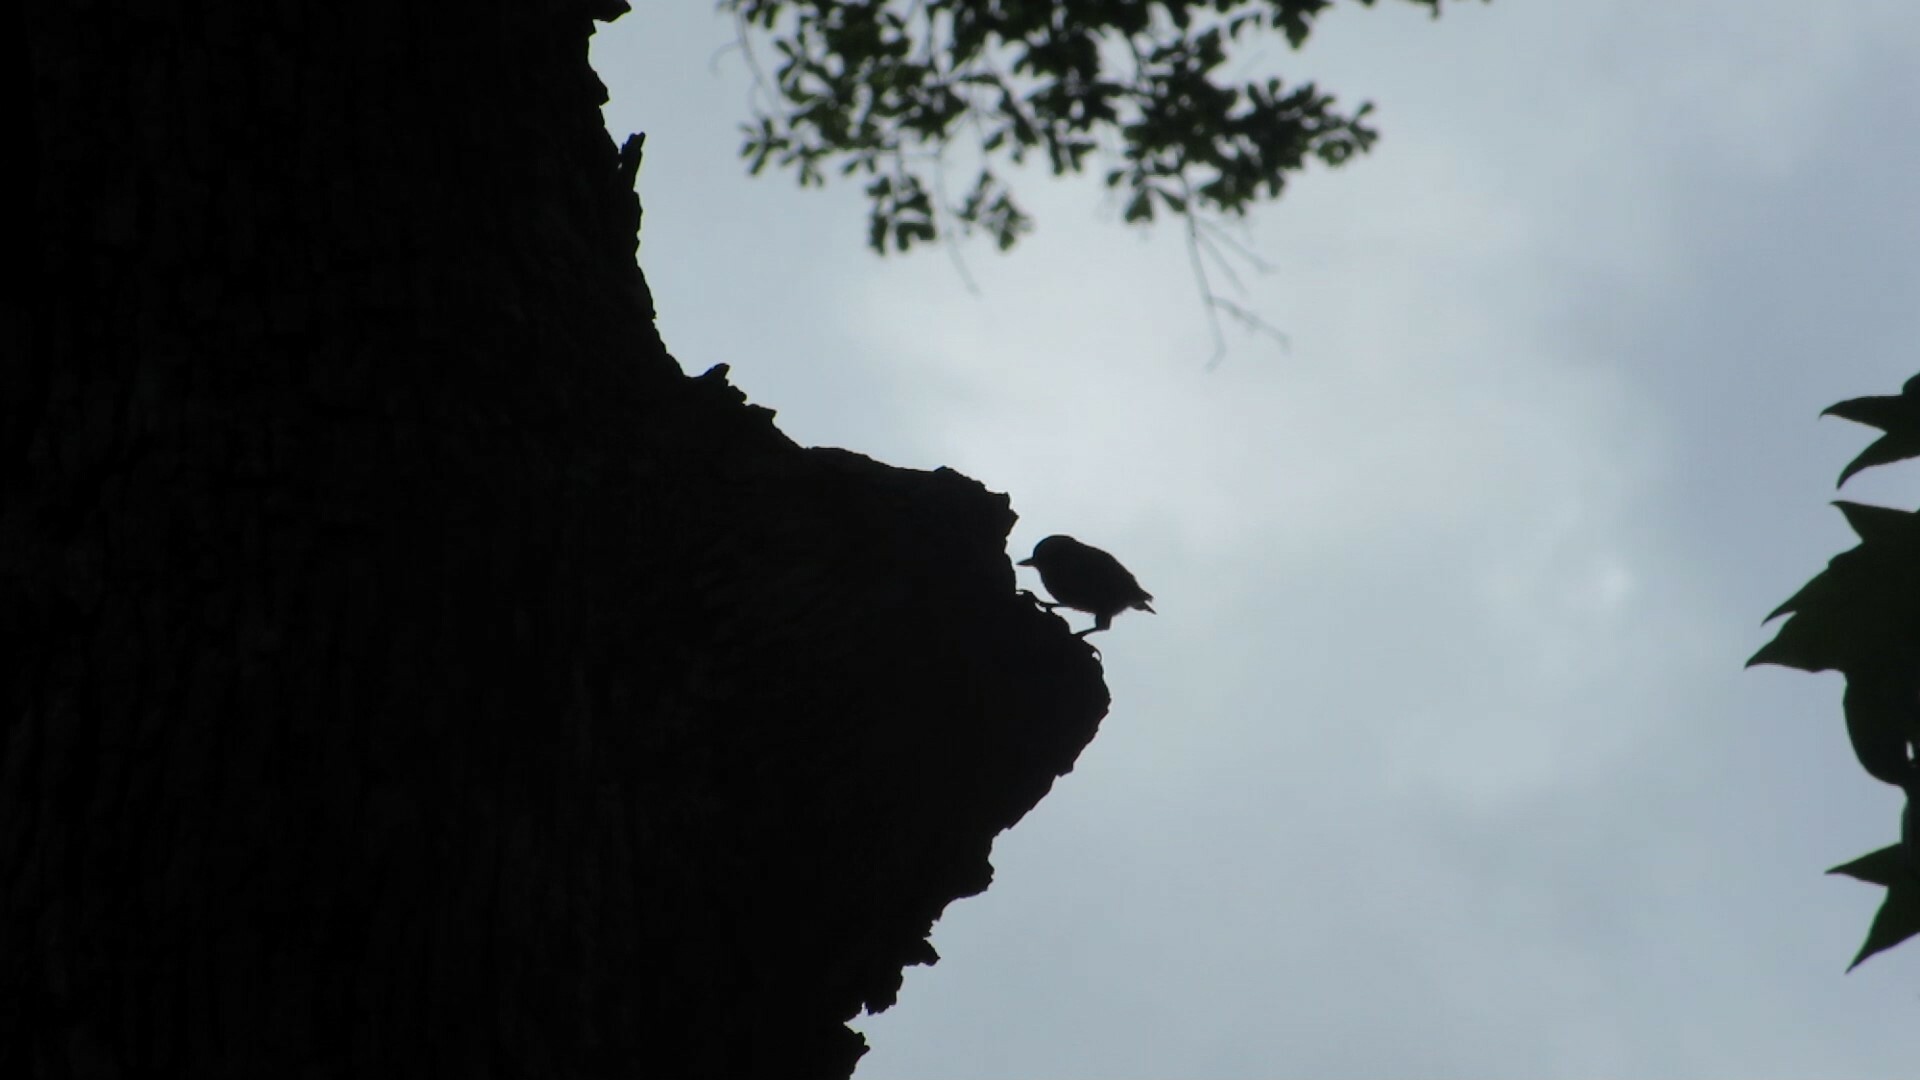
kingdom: Animalia
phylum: Chordata
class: Aves
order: Passeriformes
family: Sittidae
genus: Sitta
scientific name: Sitta pusilla
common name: Brown-headed nuthatch
